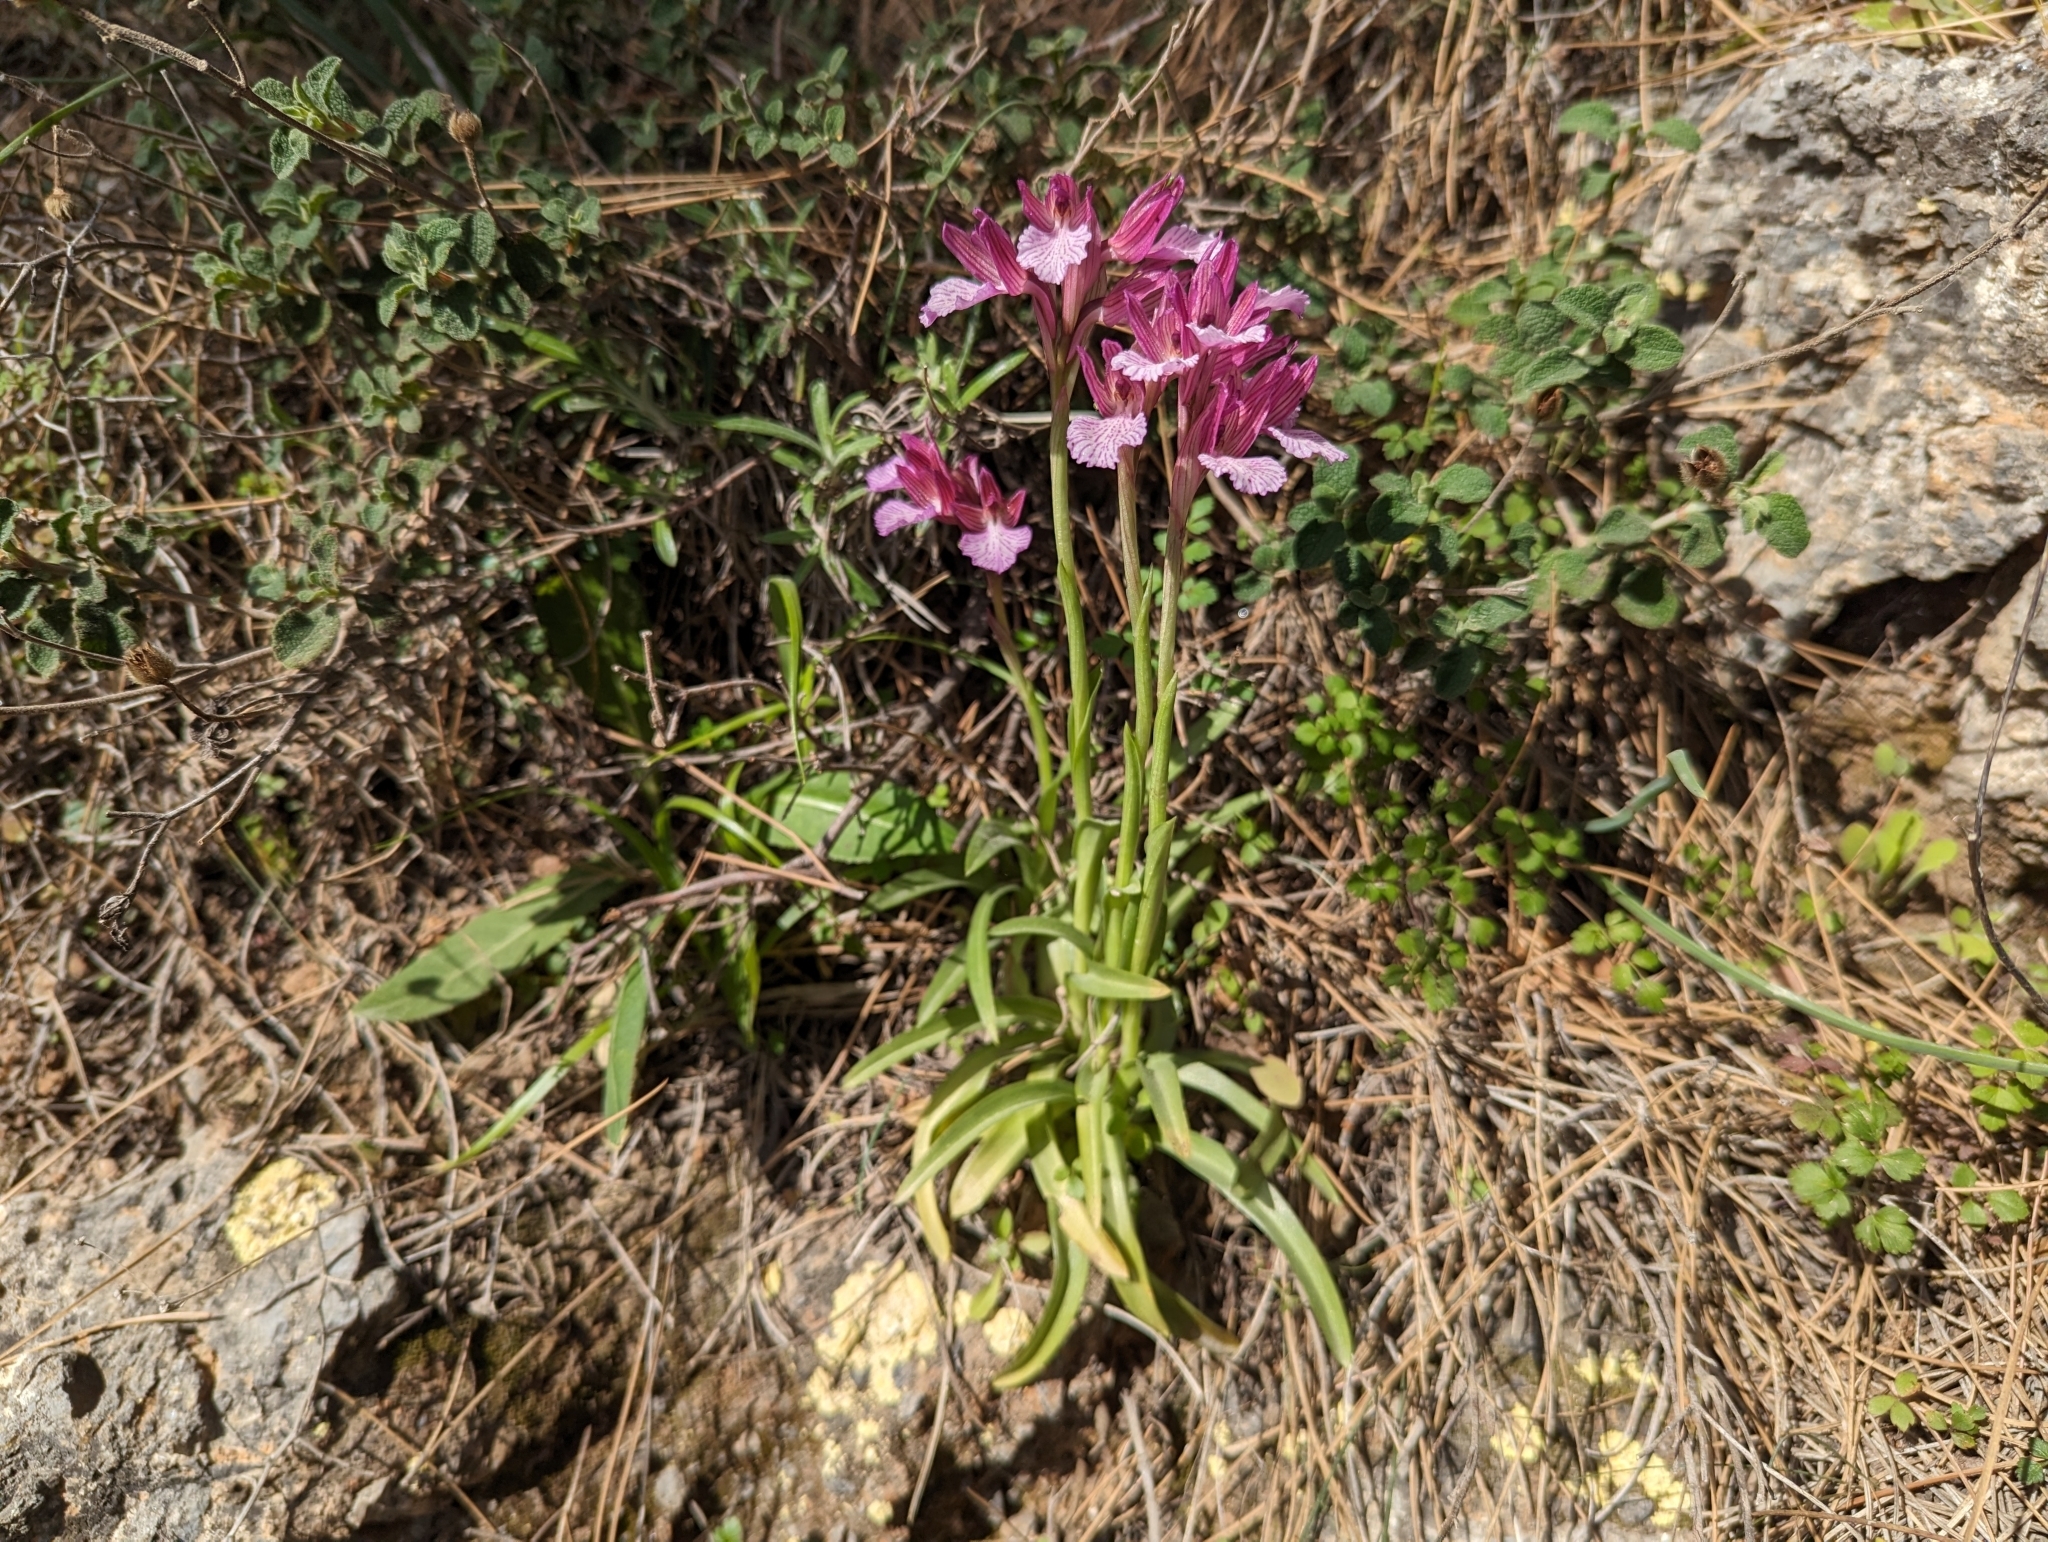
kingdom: Plantae
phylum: Tracheophyta
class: Liliopsida
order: Asparagales
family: Orchidaceae
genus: Anacamptis
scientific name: Anacamptis papilionacea
